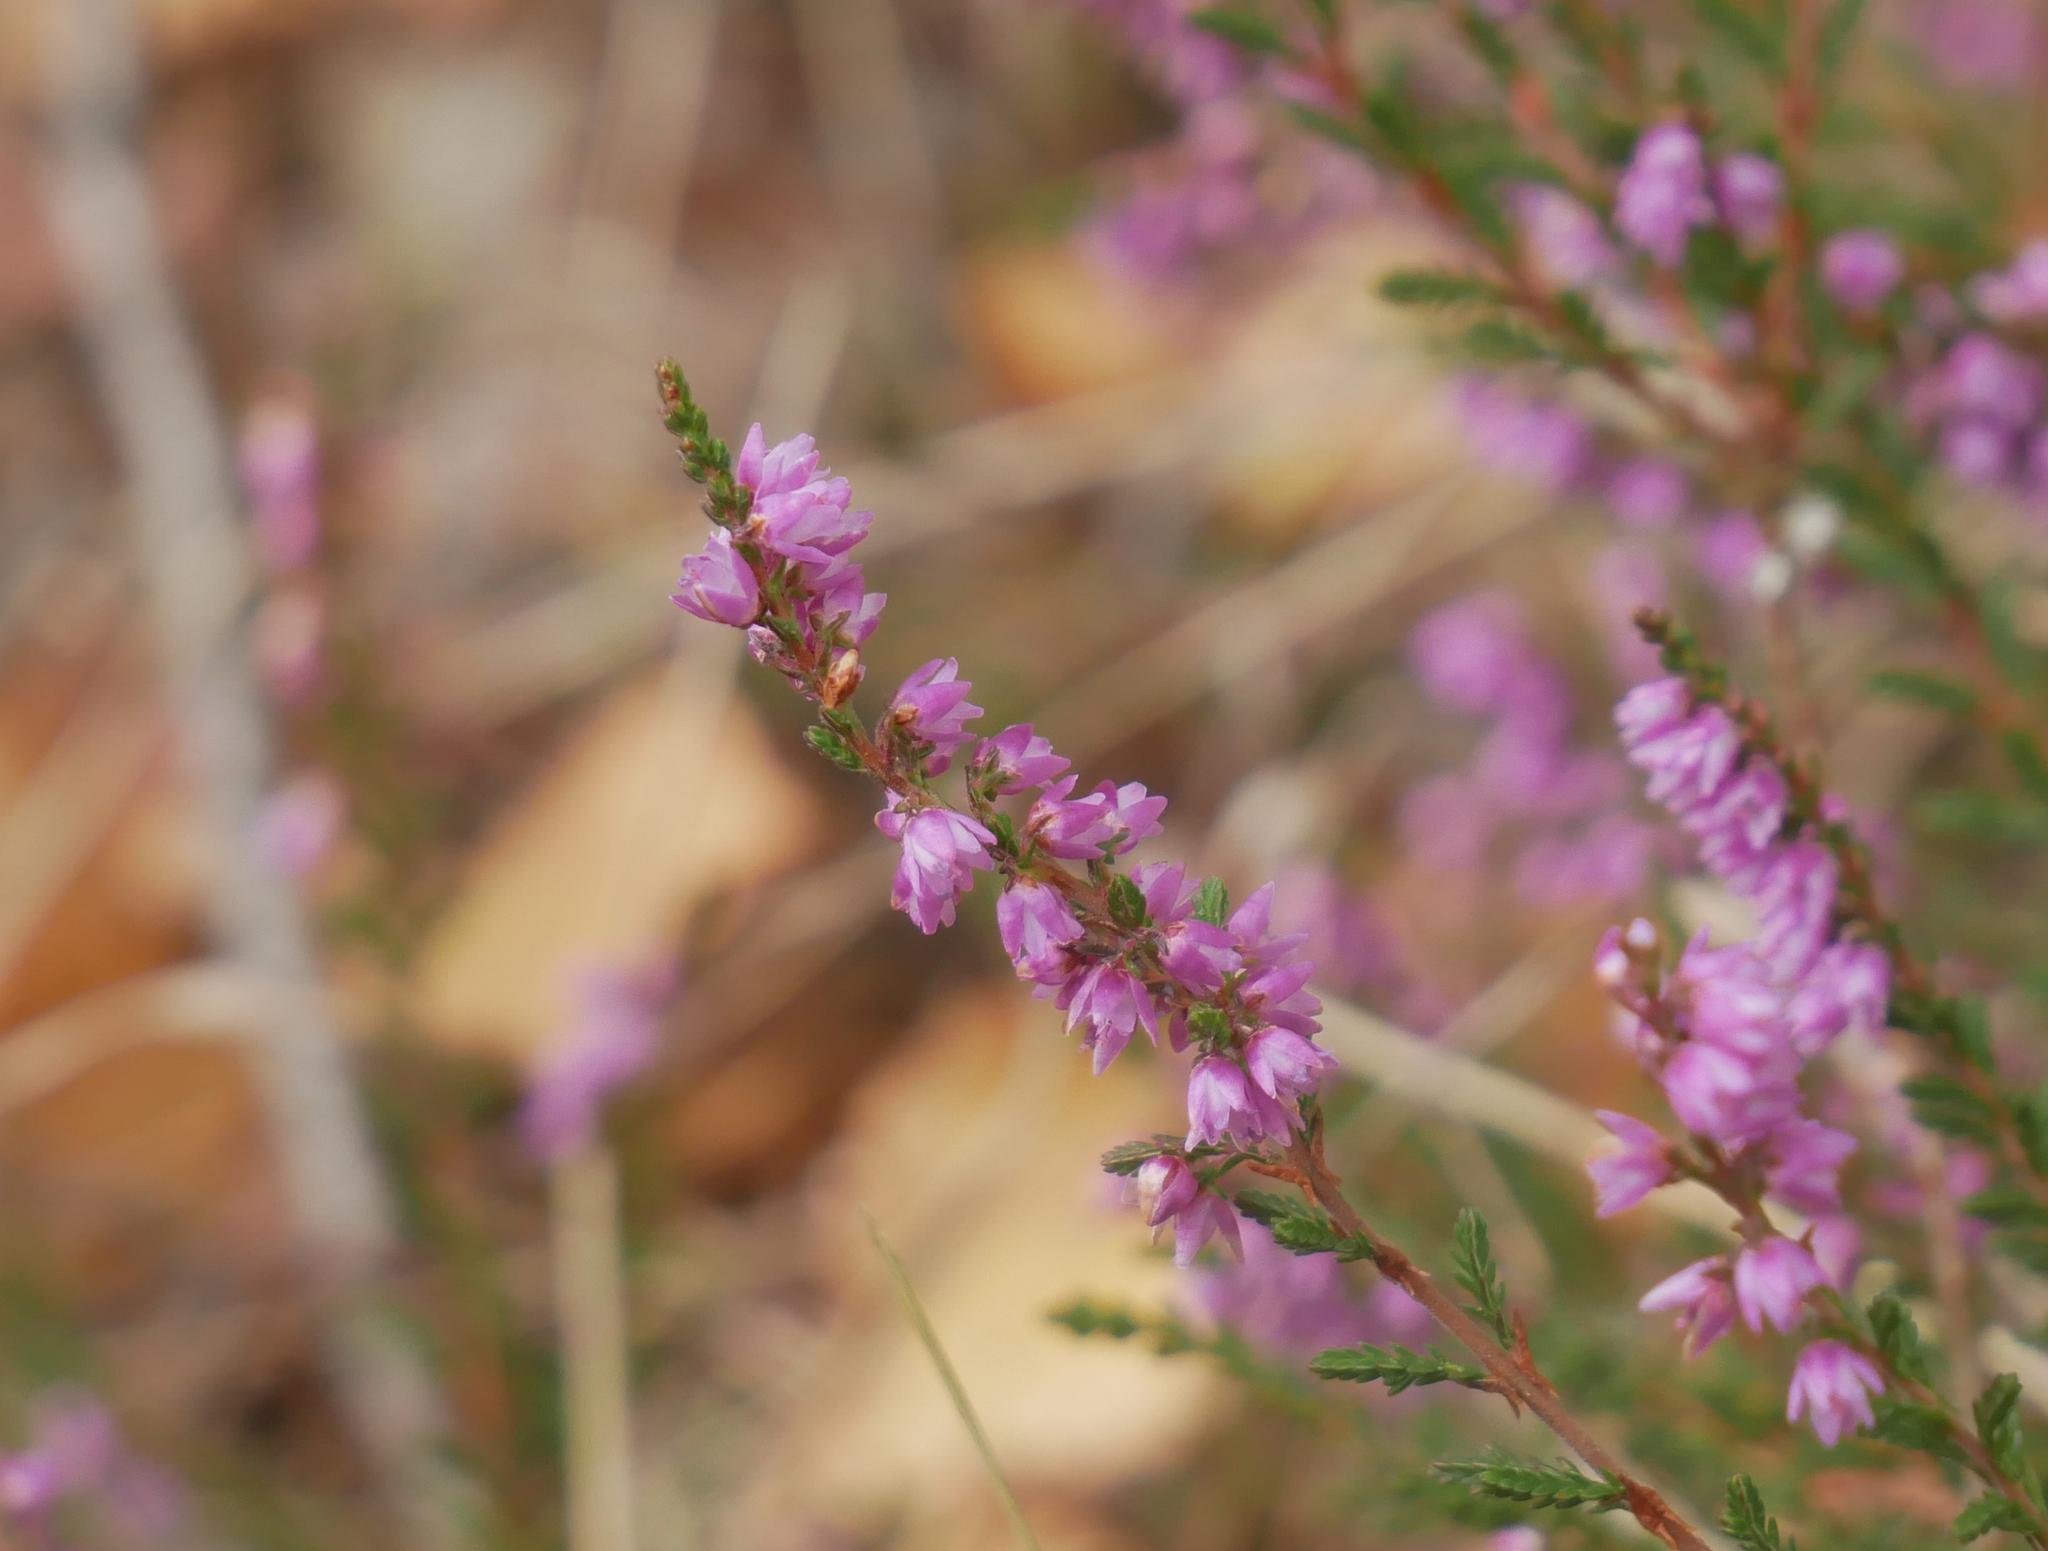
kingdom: Plantae
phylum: Tracheophyta
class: Magnoliopsida
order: Ericales
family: Ericaceae
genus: Calluna
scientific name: Calluna vulgaris
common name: Heather
